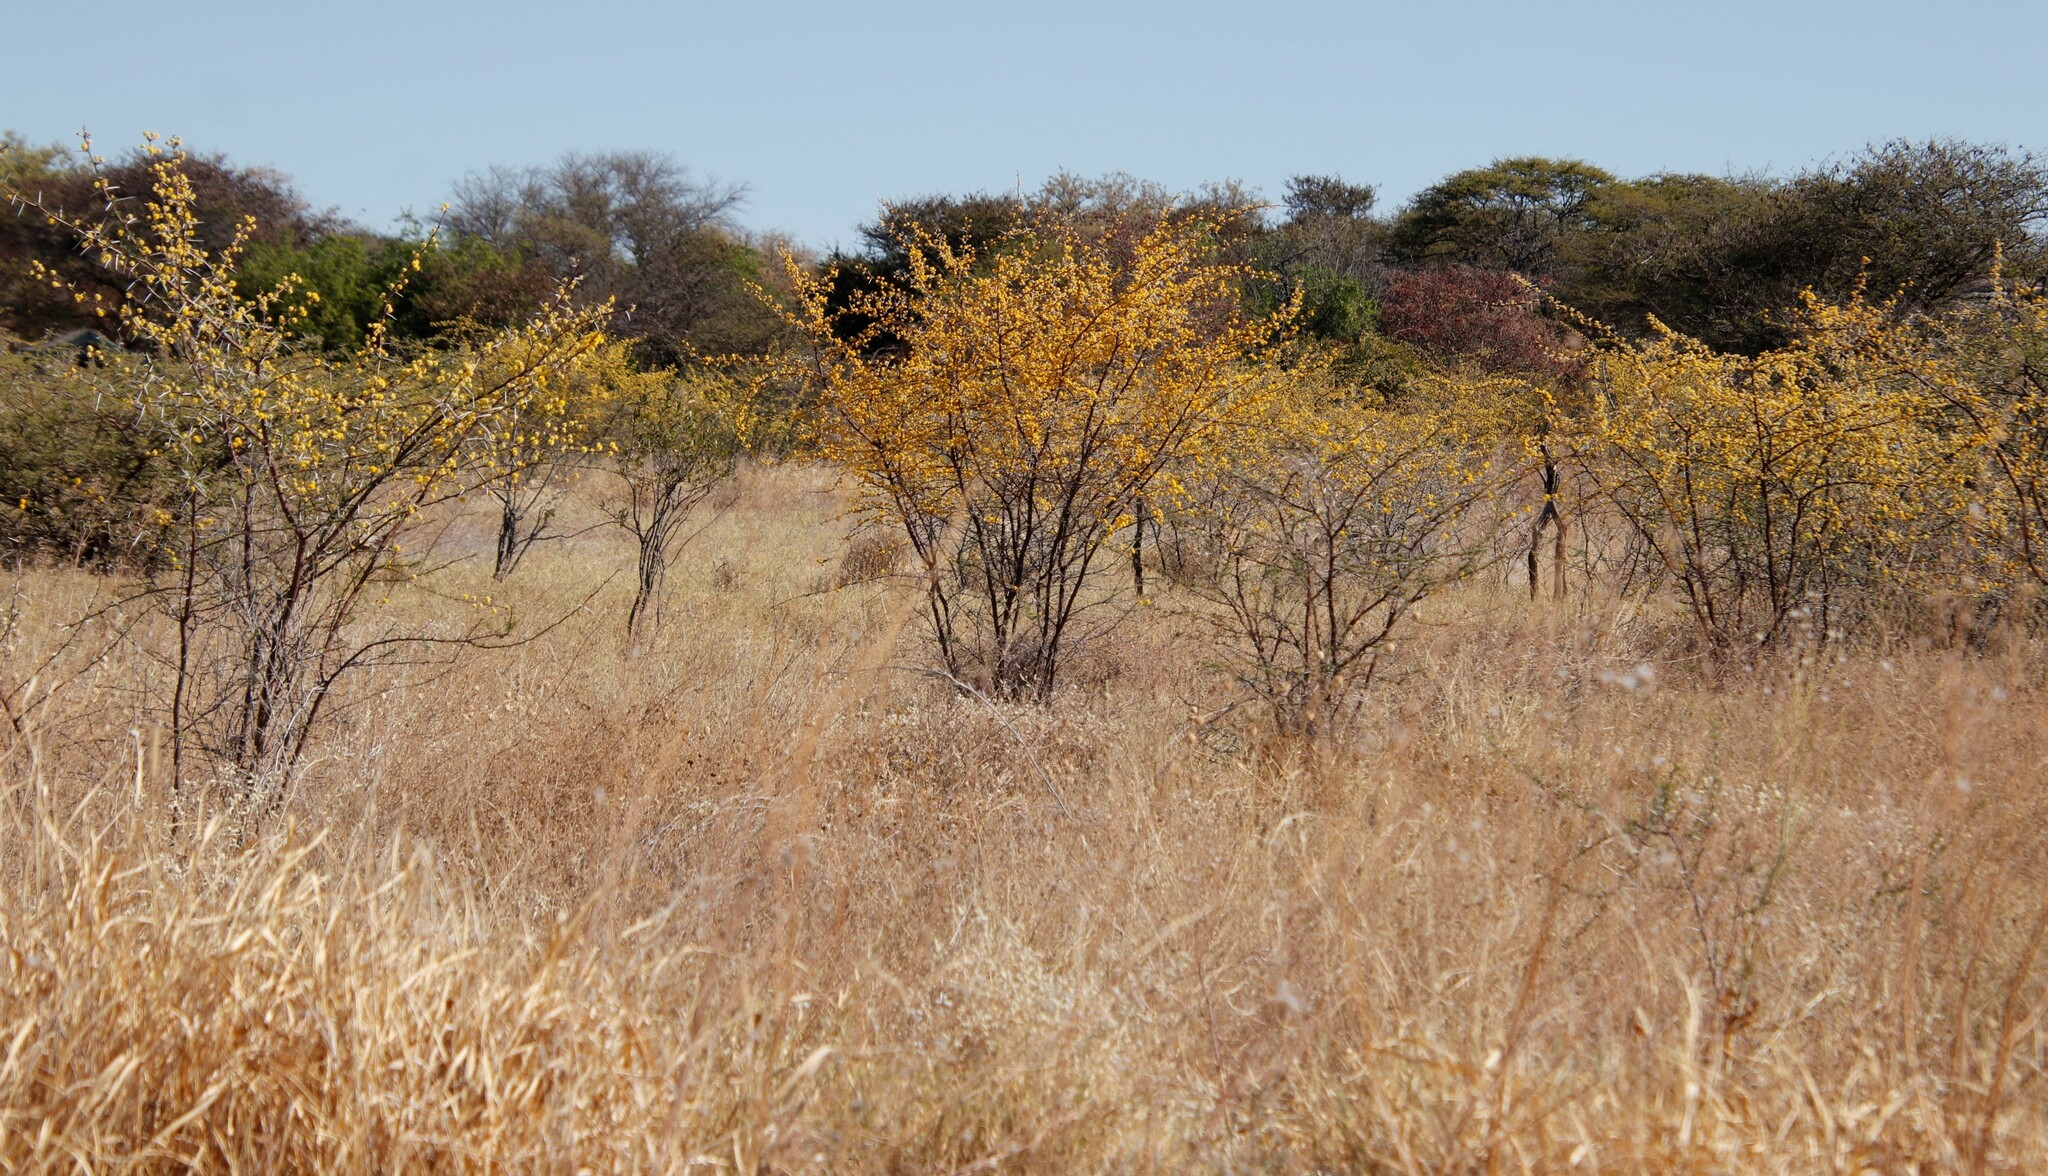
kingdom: Plantae
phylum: Tracheophyta
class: Magnoliopsida
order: Fabales
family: Fabaceae
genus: Vachellia
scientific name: Vachellia nebrownii
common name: Water acacia
